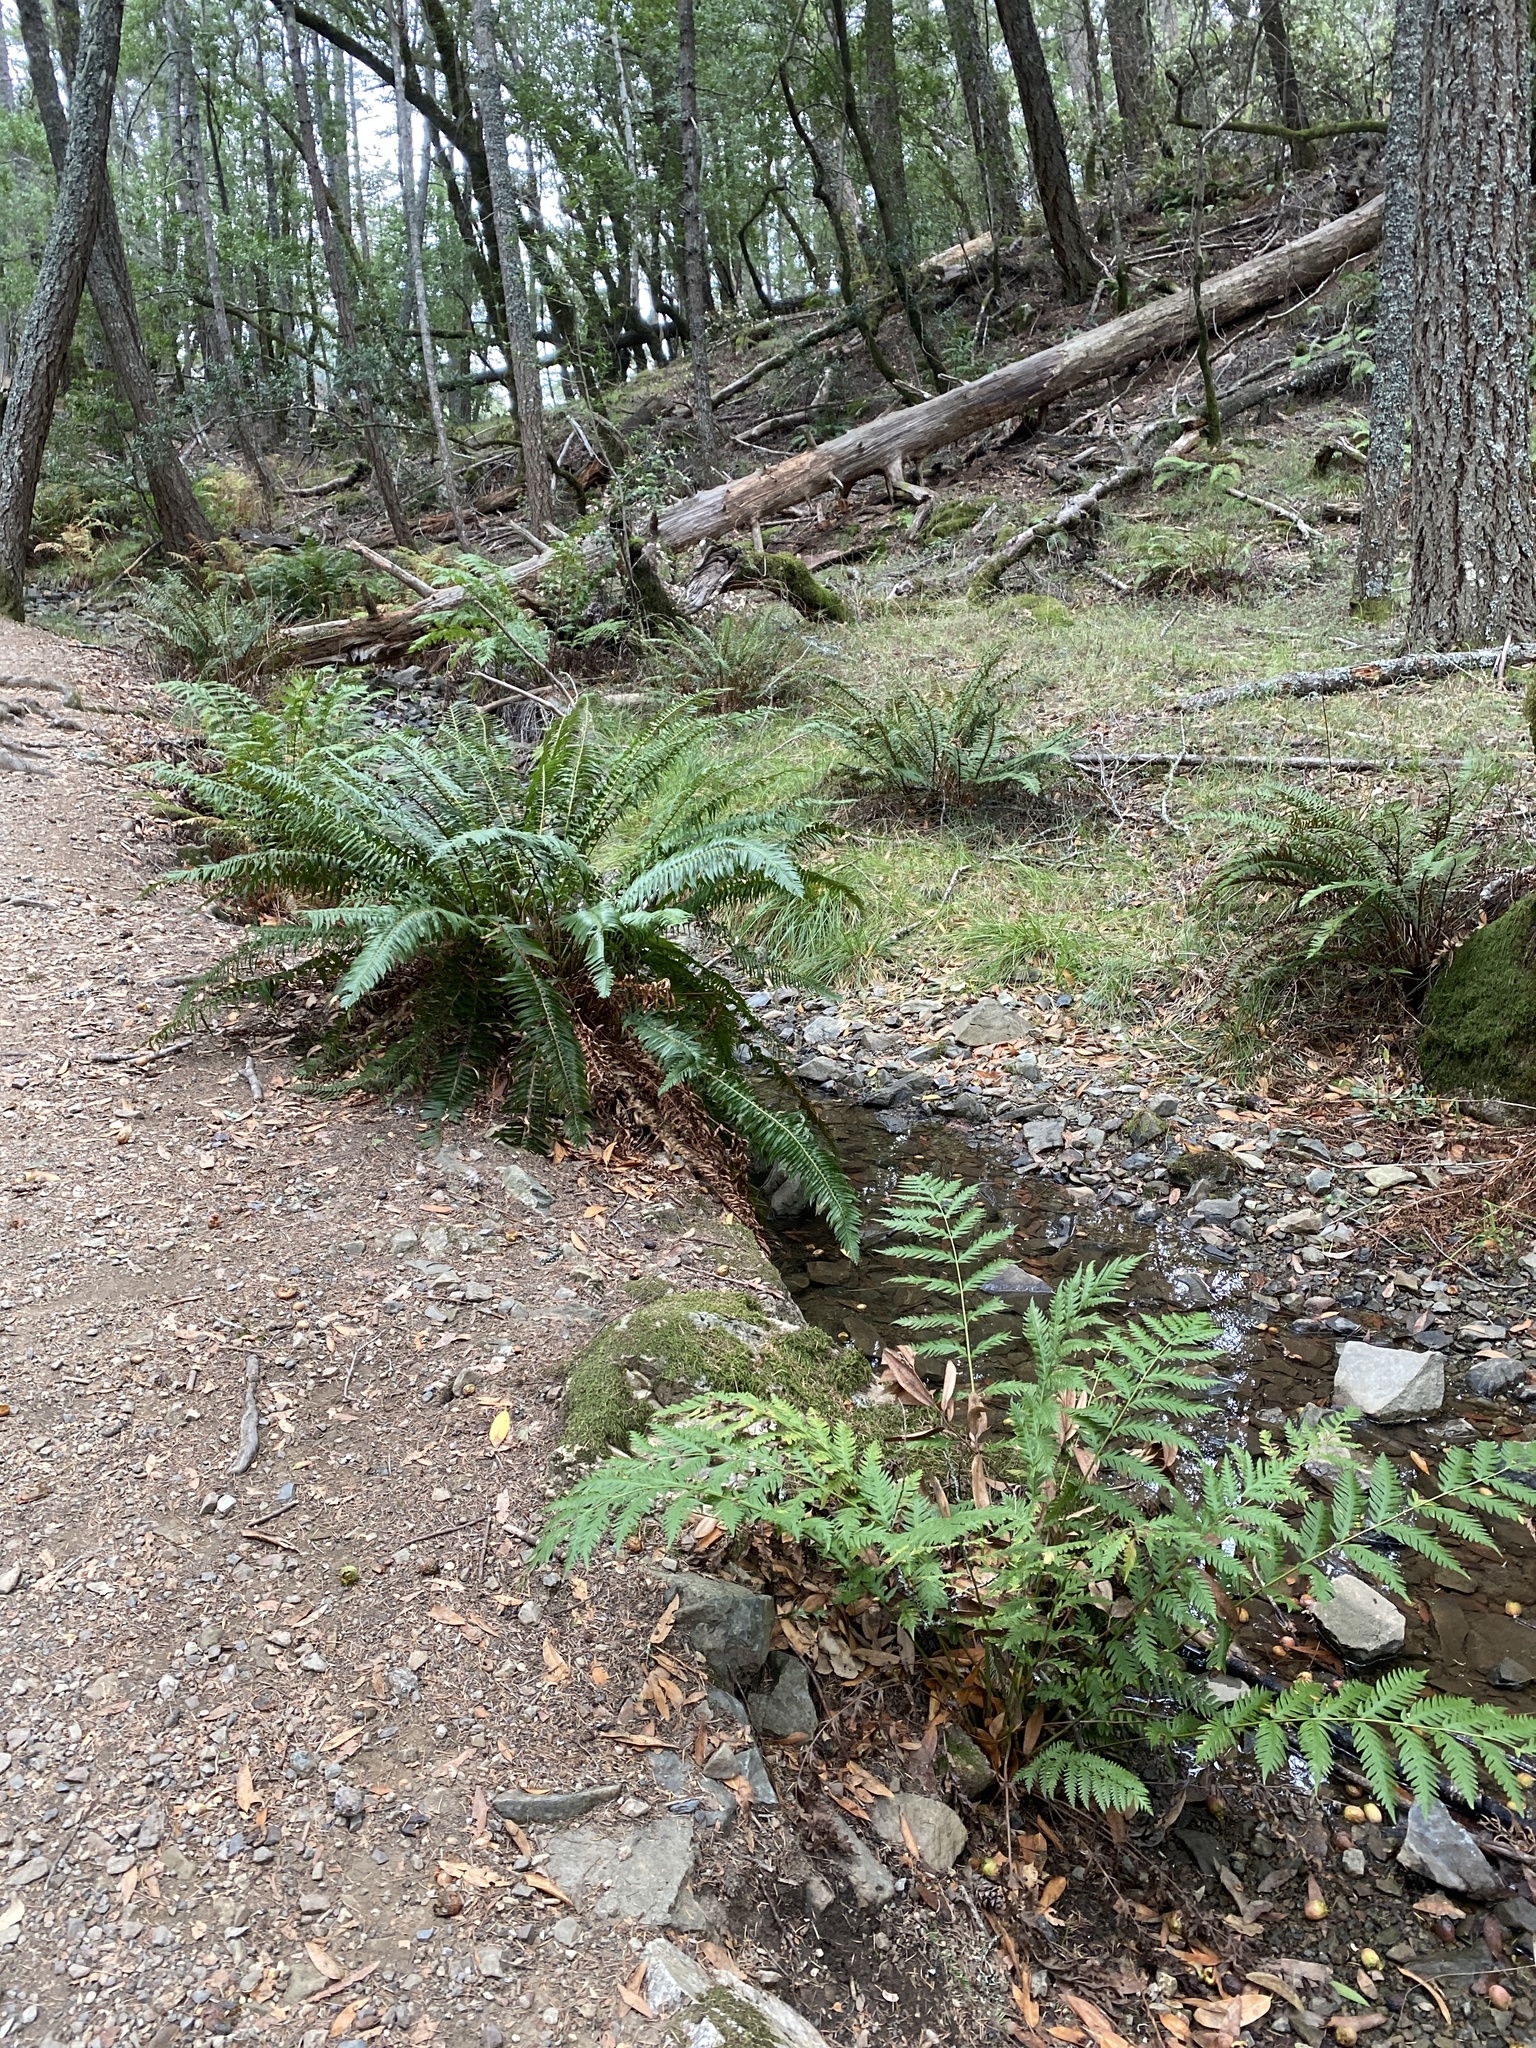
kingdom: Plantae
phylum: Tracheophyta
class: Polypodiopsida
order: Polypodiales
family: Dryopteridaceae
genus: Polystichum
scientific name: Polystichum munitum
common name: Western sword-fern
